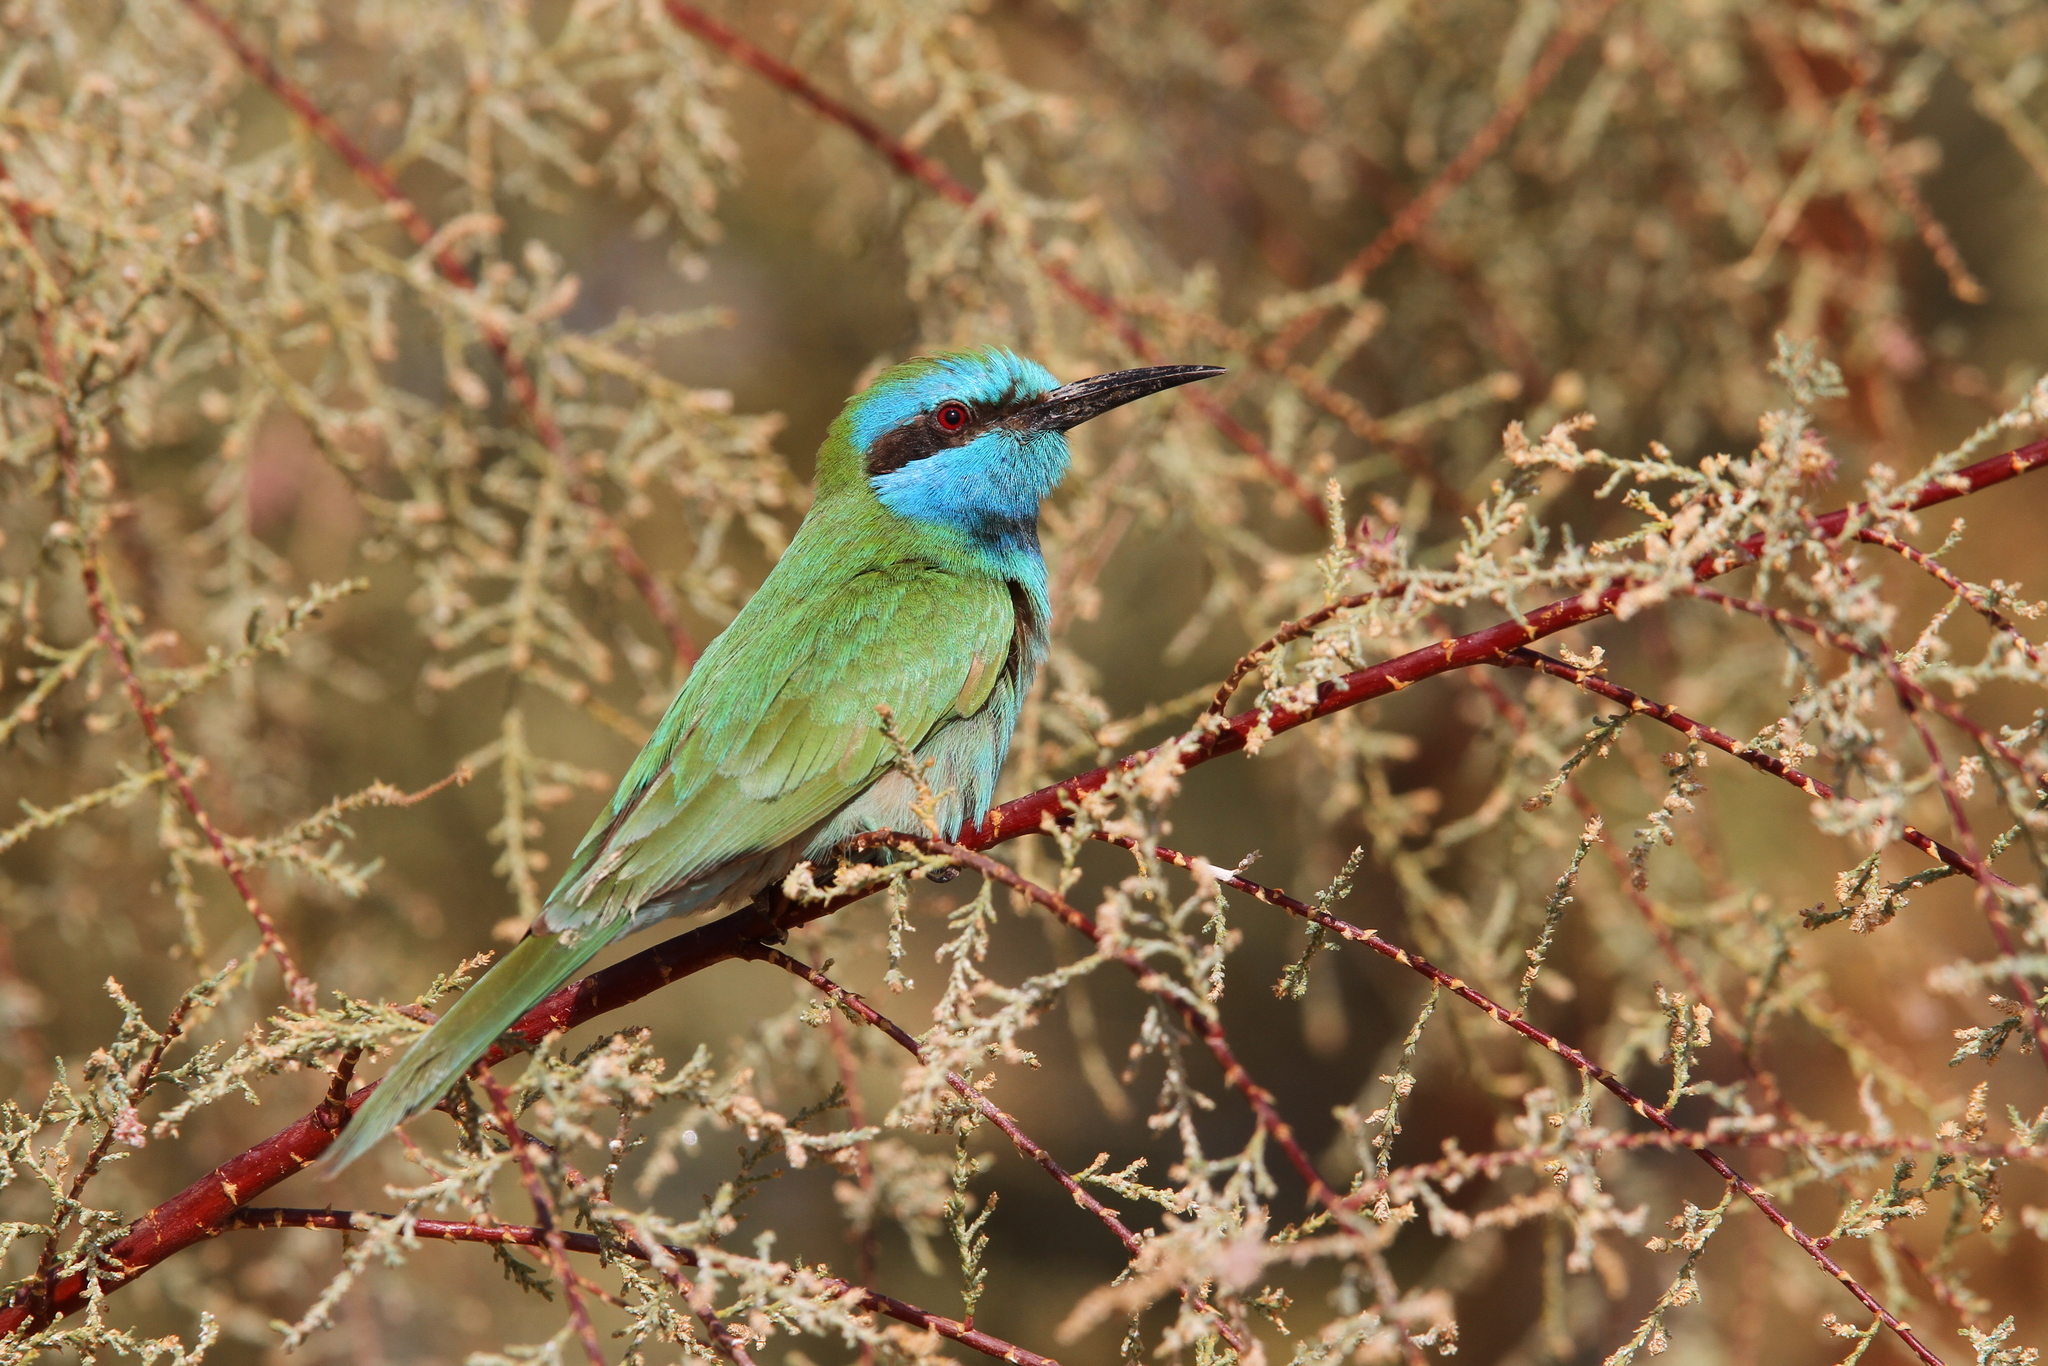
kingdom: Animalia
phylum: Chordata
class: Aves
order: Coraciiformes
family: Meropidae
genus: Merops
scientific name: Merops cyanophrys
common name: Arabian green bee-eater
